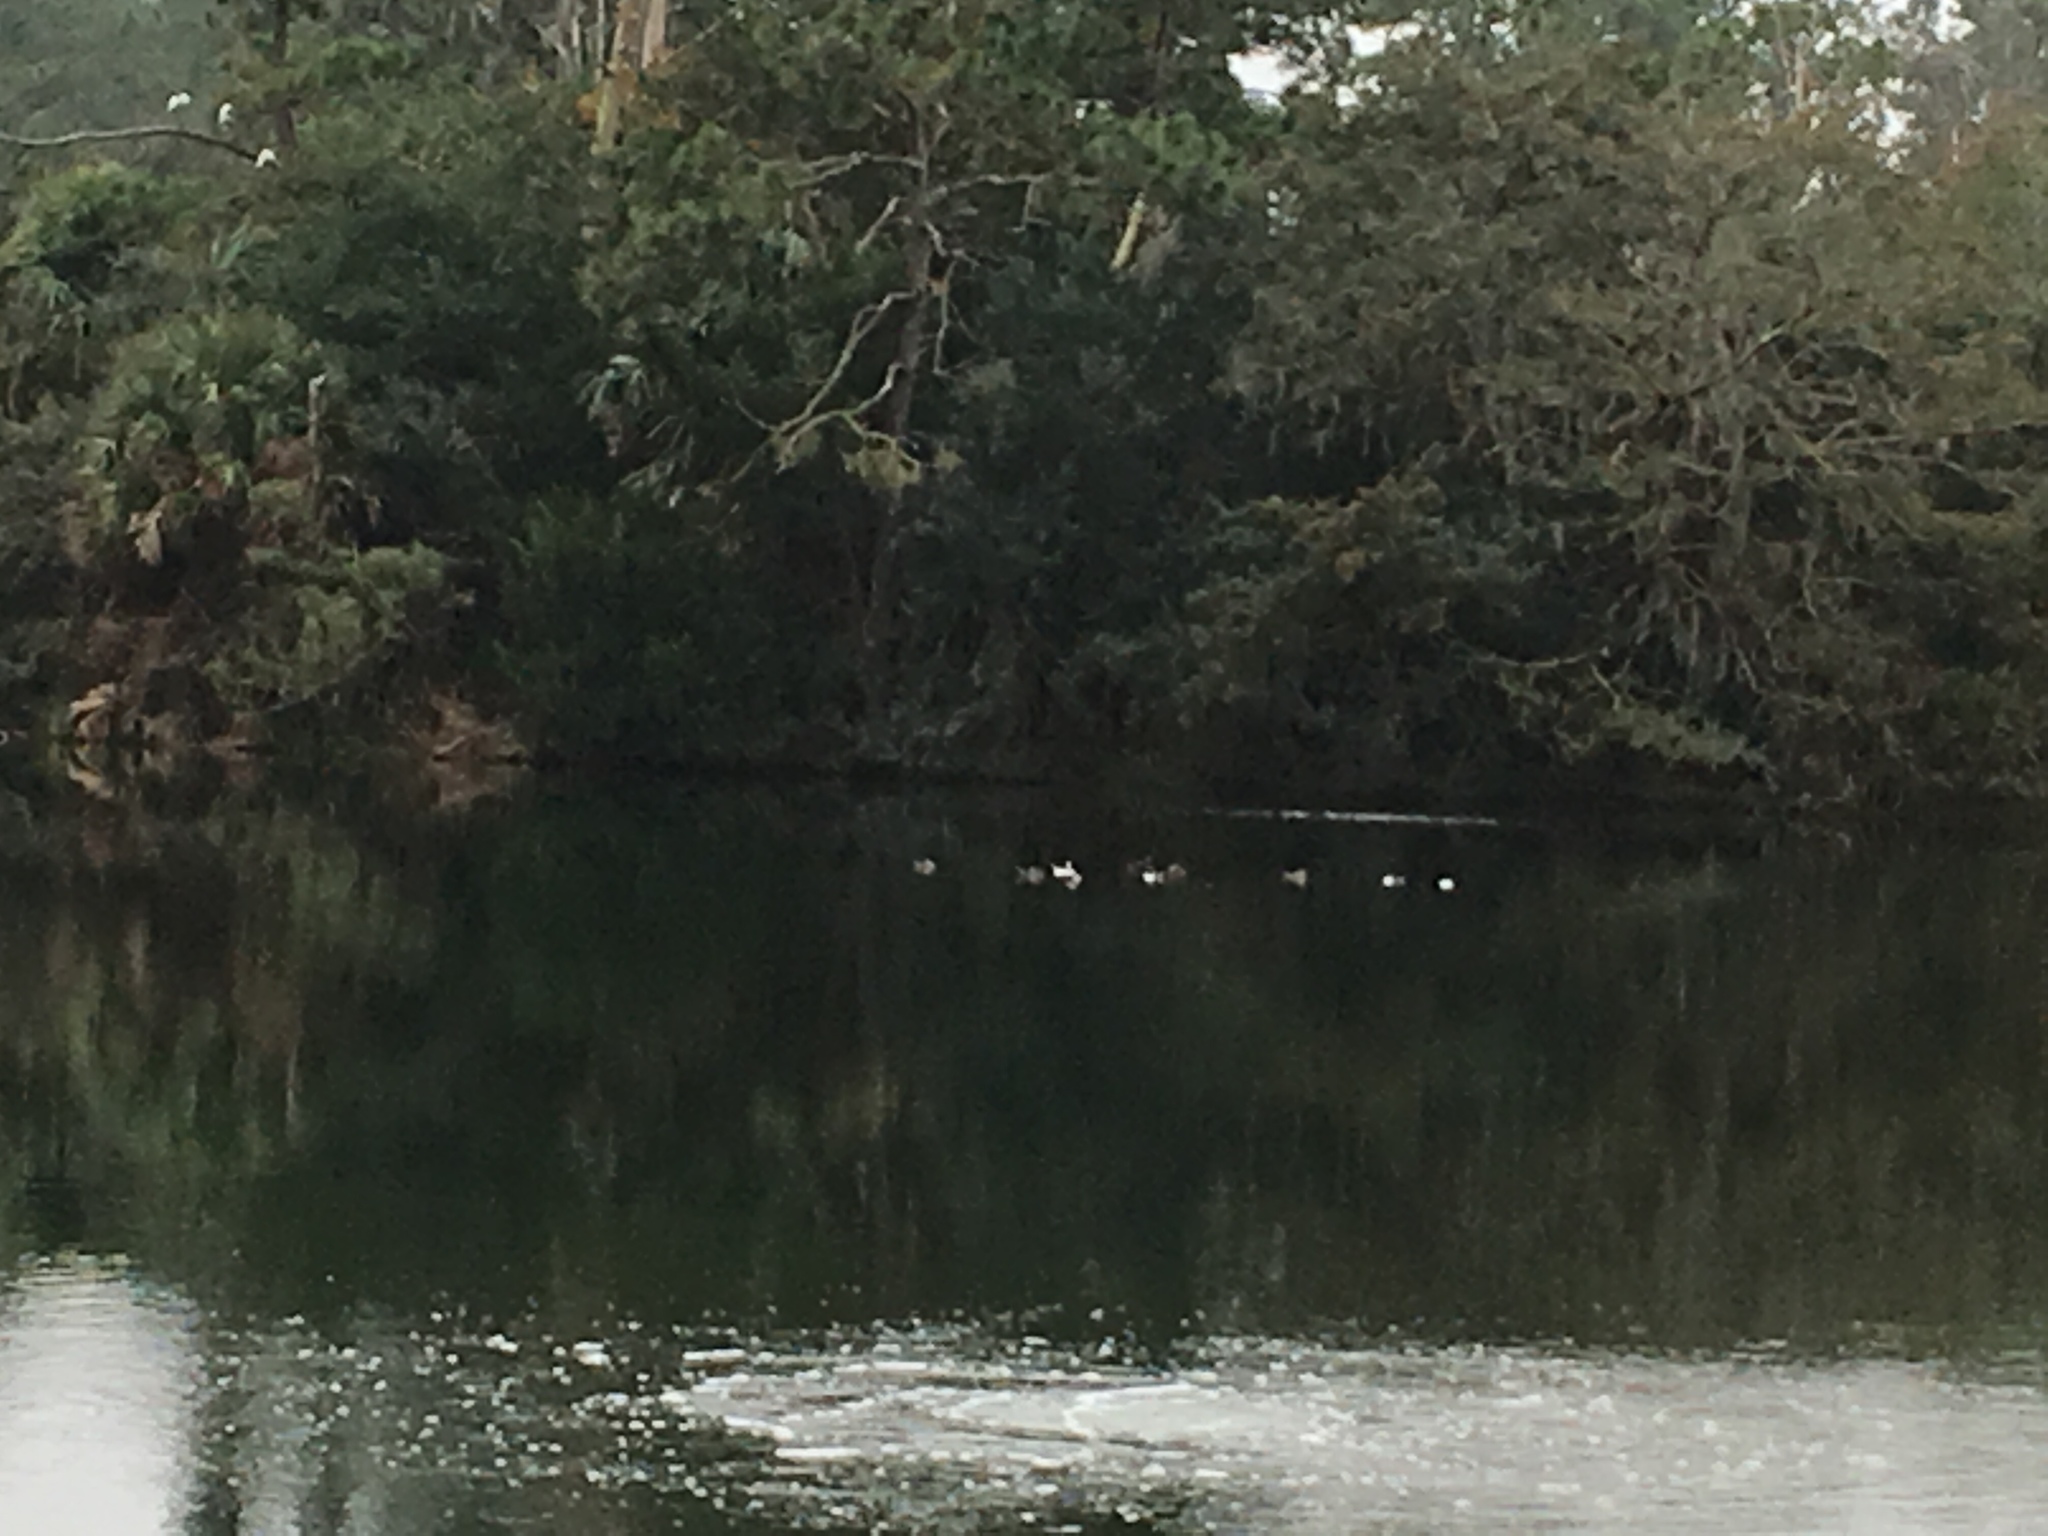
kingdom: Animalia
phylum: Chordata
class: Aves
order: Anseriformes
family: Anatidae
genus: Lophodytes
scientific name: Lophodytes cucullatus
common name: Hooded merganser
